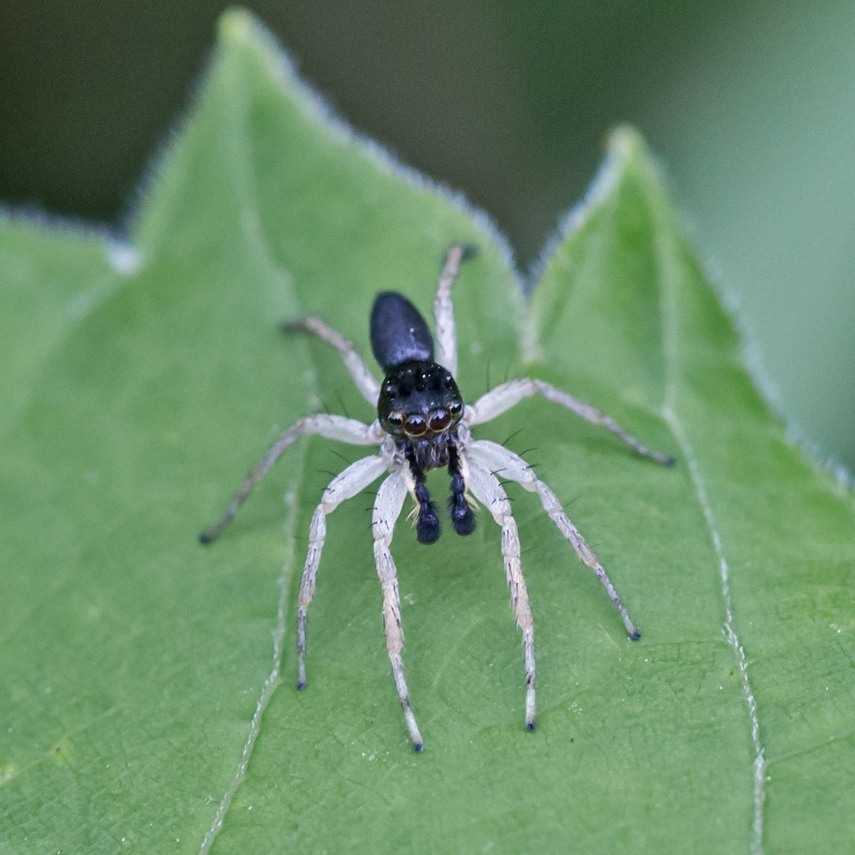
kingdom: Animalia
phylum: Arthropoda
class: Arachnida
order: Araneae
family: Salticidae
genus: Maevia
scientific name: Maevia inclemens
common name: Dimorphic jumper
